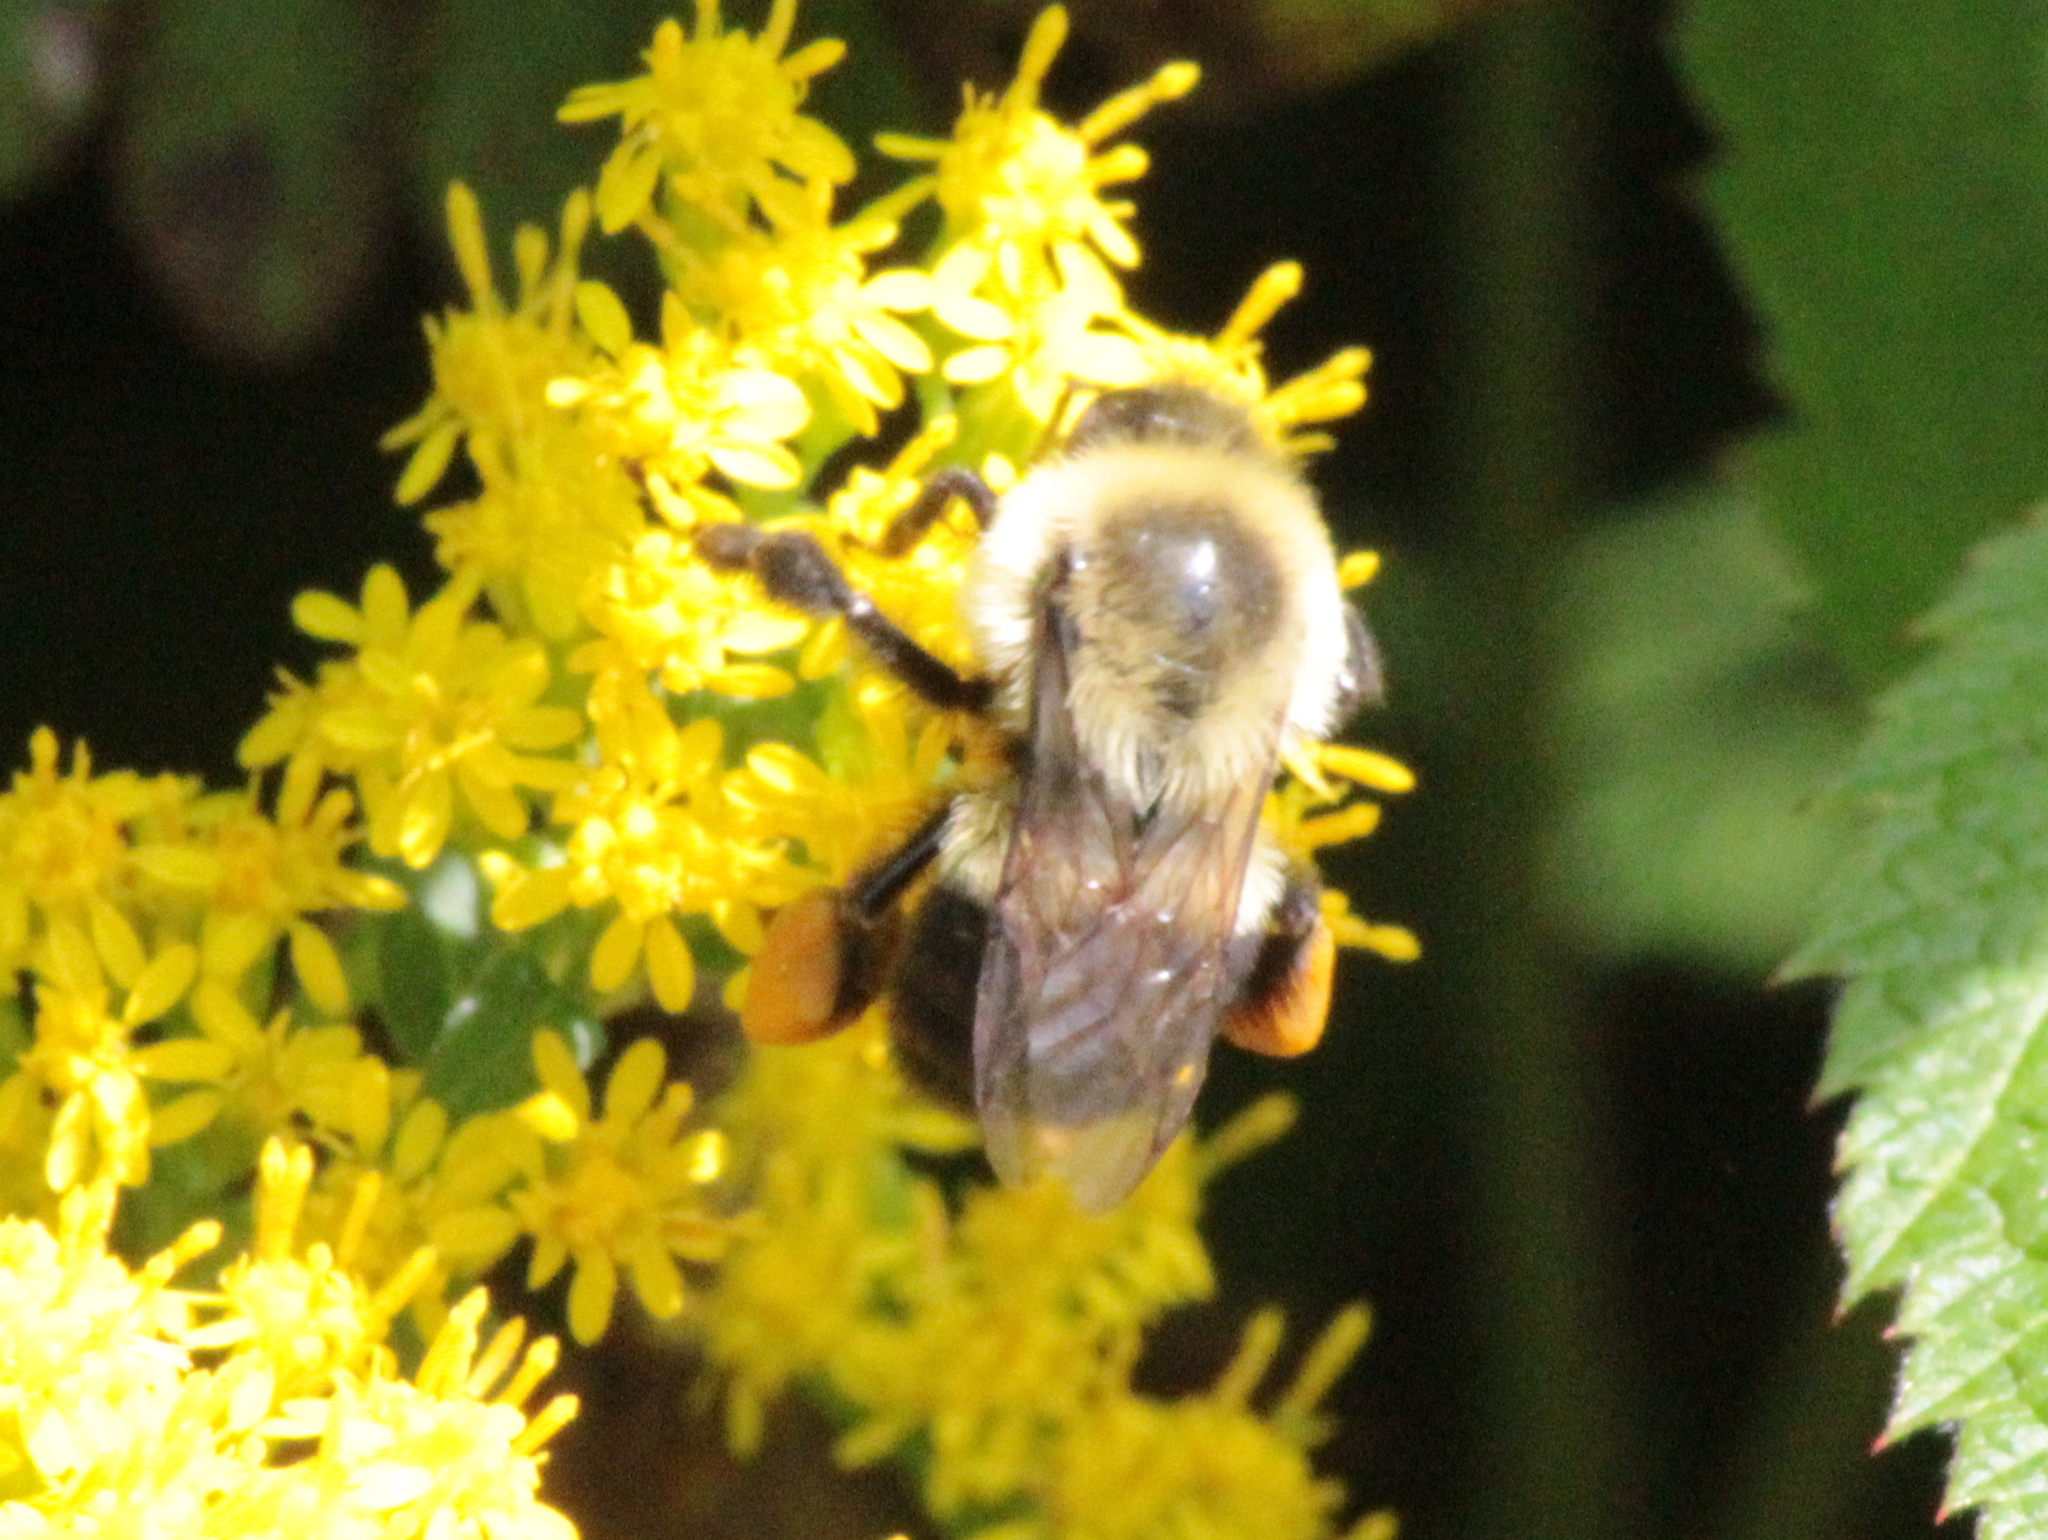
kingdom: Animalia
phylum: Arthropoda
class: Insecta
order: Hymenoptera
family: Apidae
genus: Bombus
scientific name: Bombus impatiens
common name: Common eastern bumble bee
